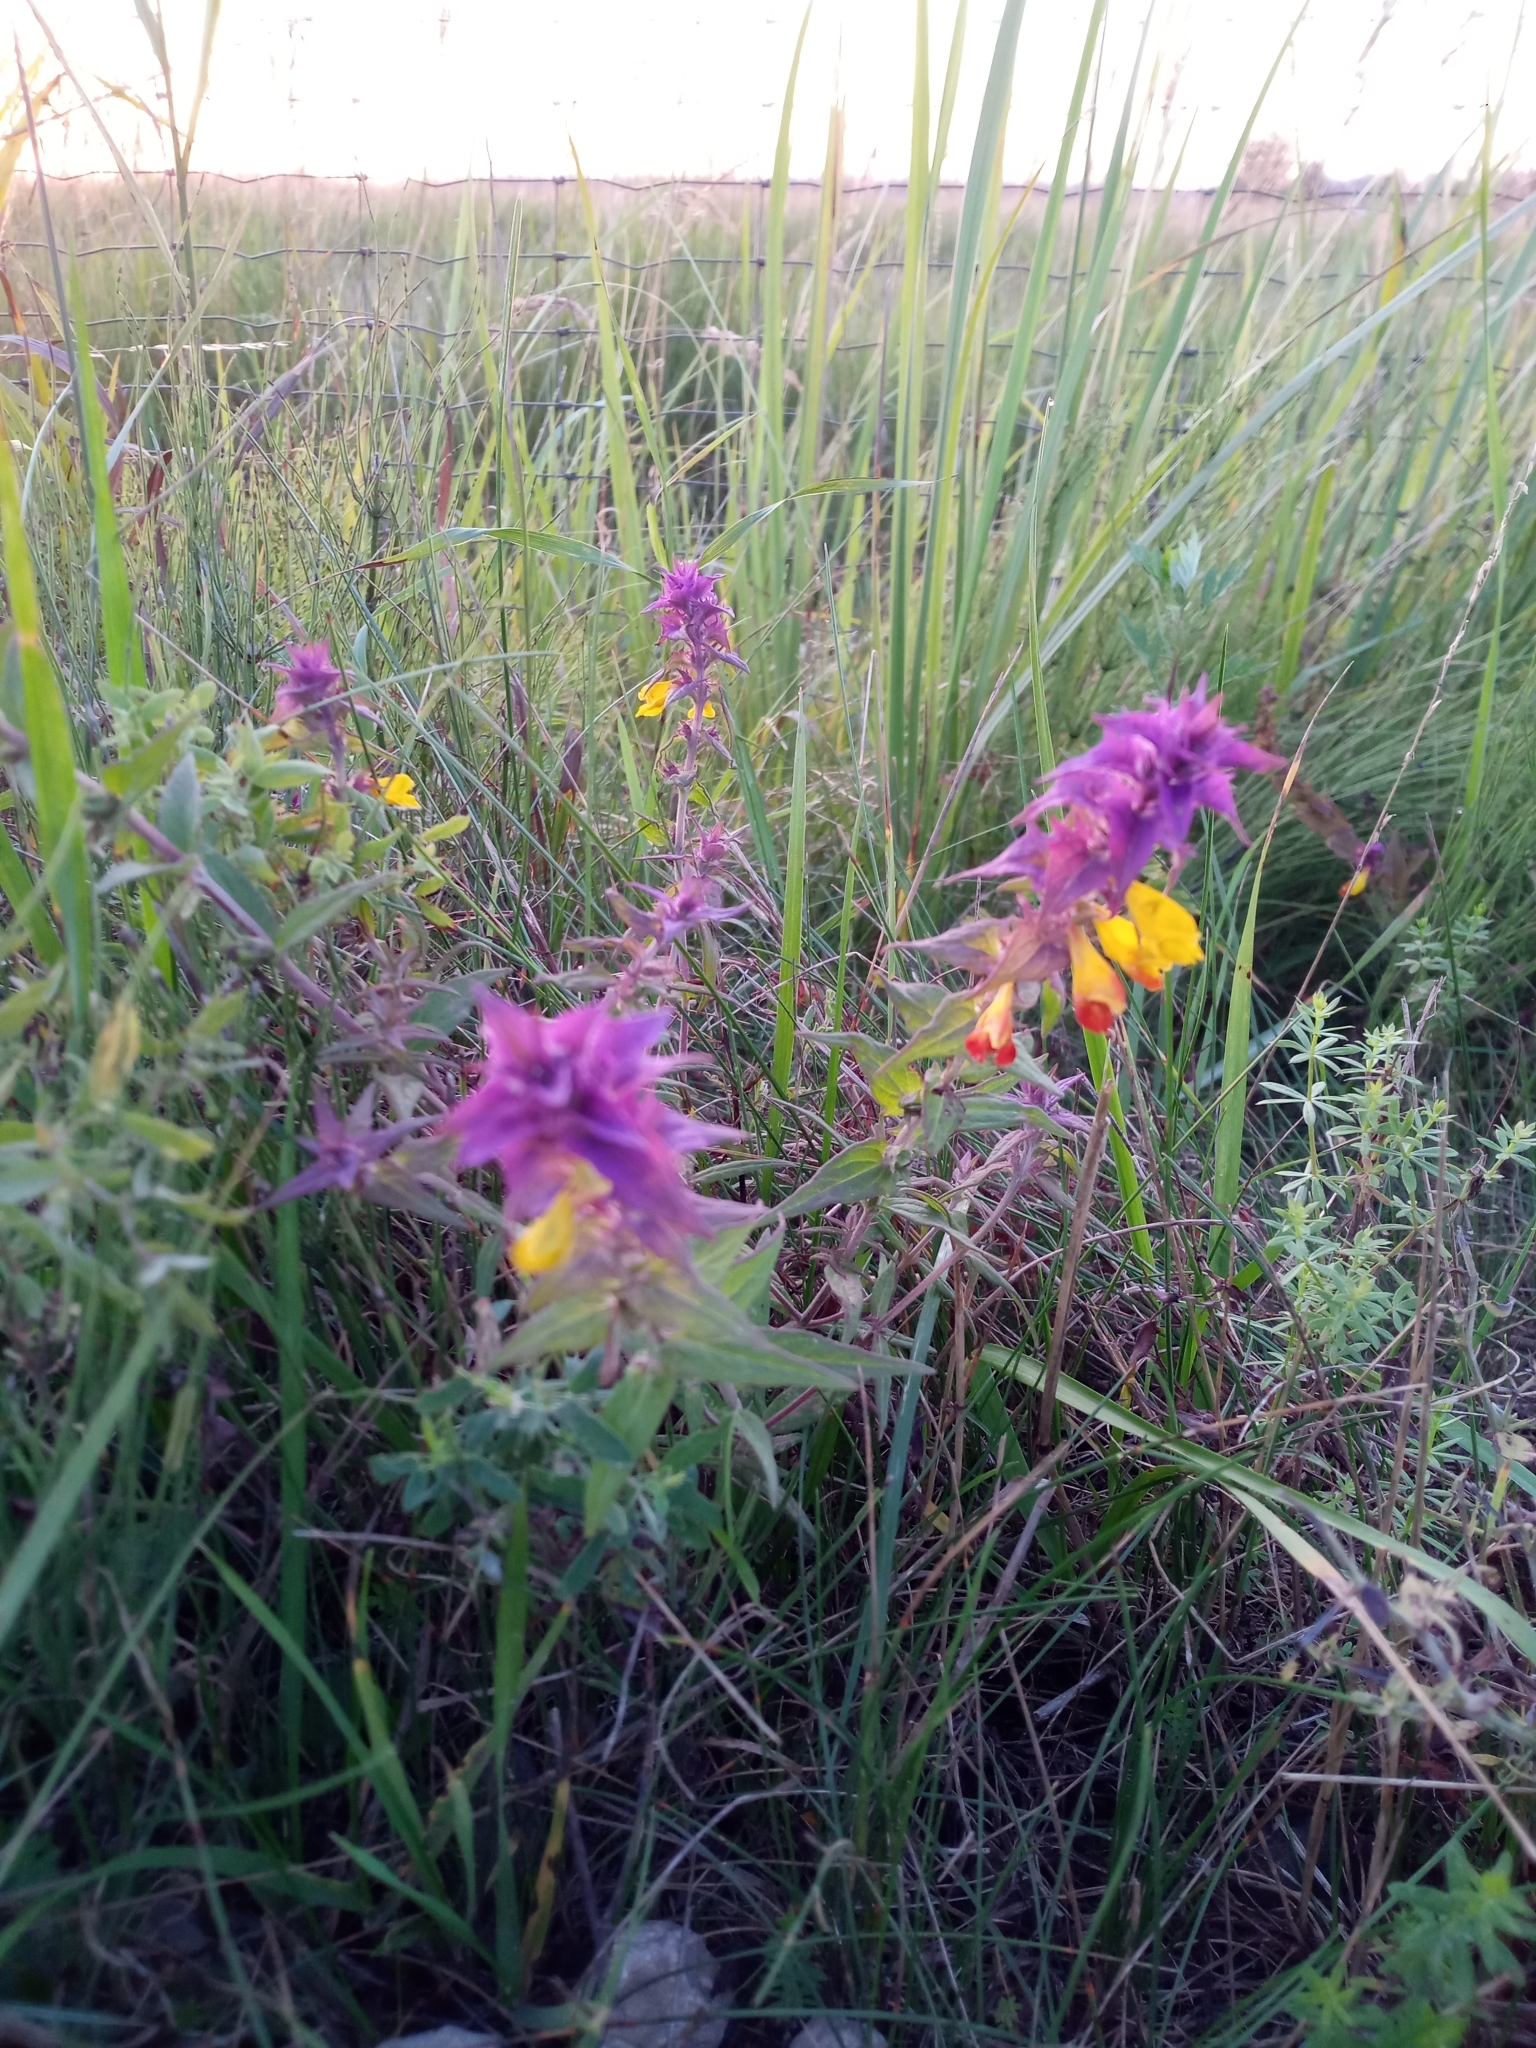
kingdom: Plantae
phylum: Tracheophyta
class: Magnoliopsida
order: Lamiales
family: Orobanchaceae
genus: Melampyrum
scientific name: Melampyrum nemorosum
